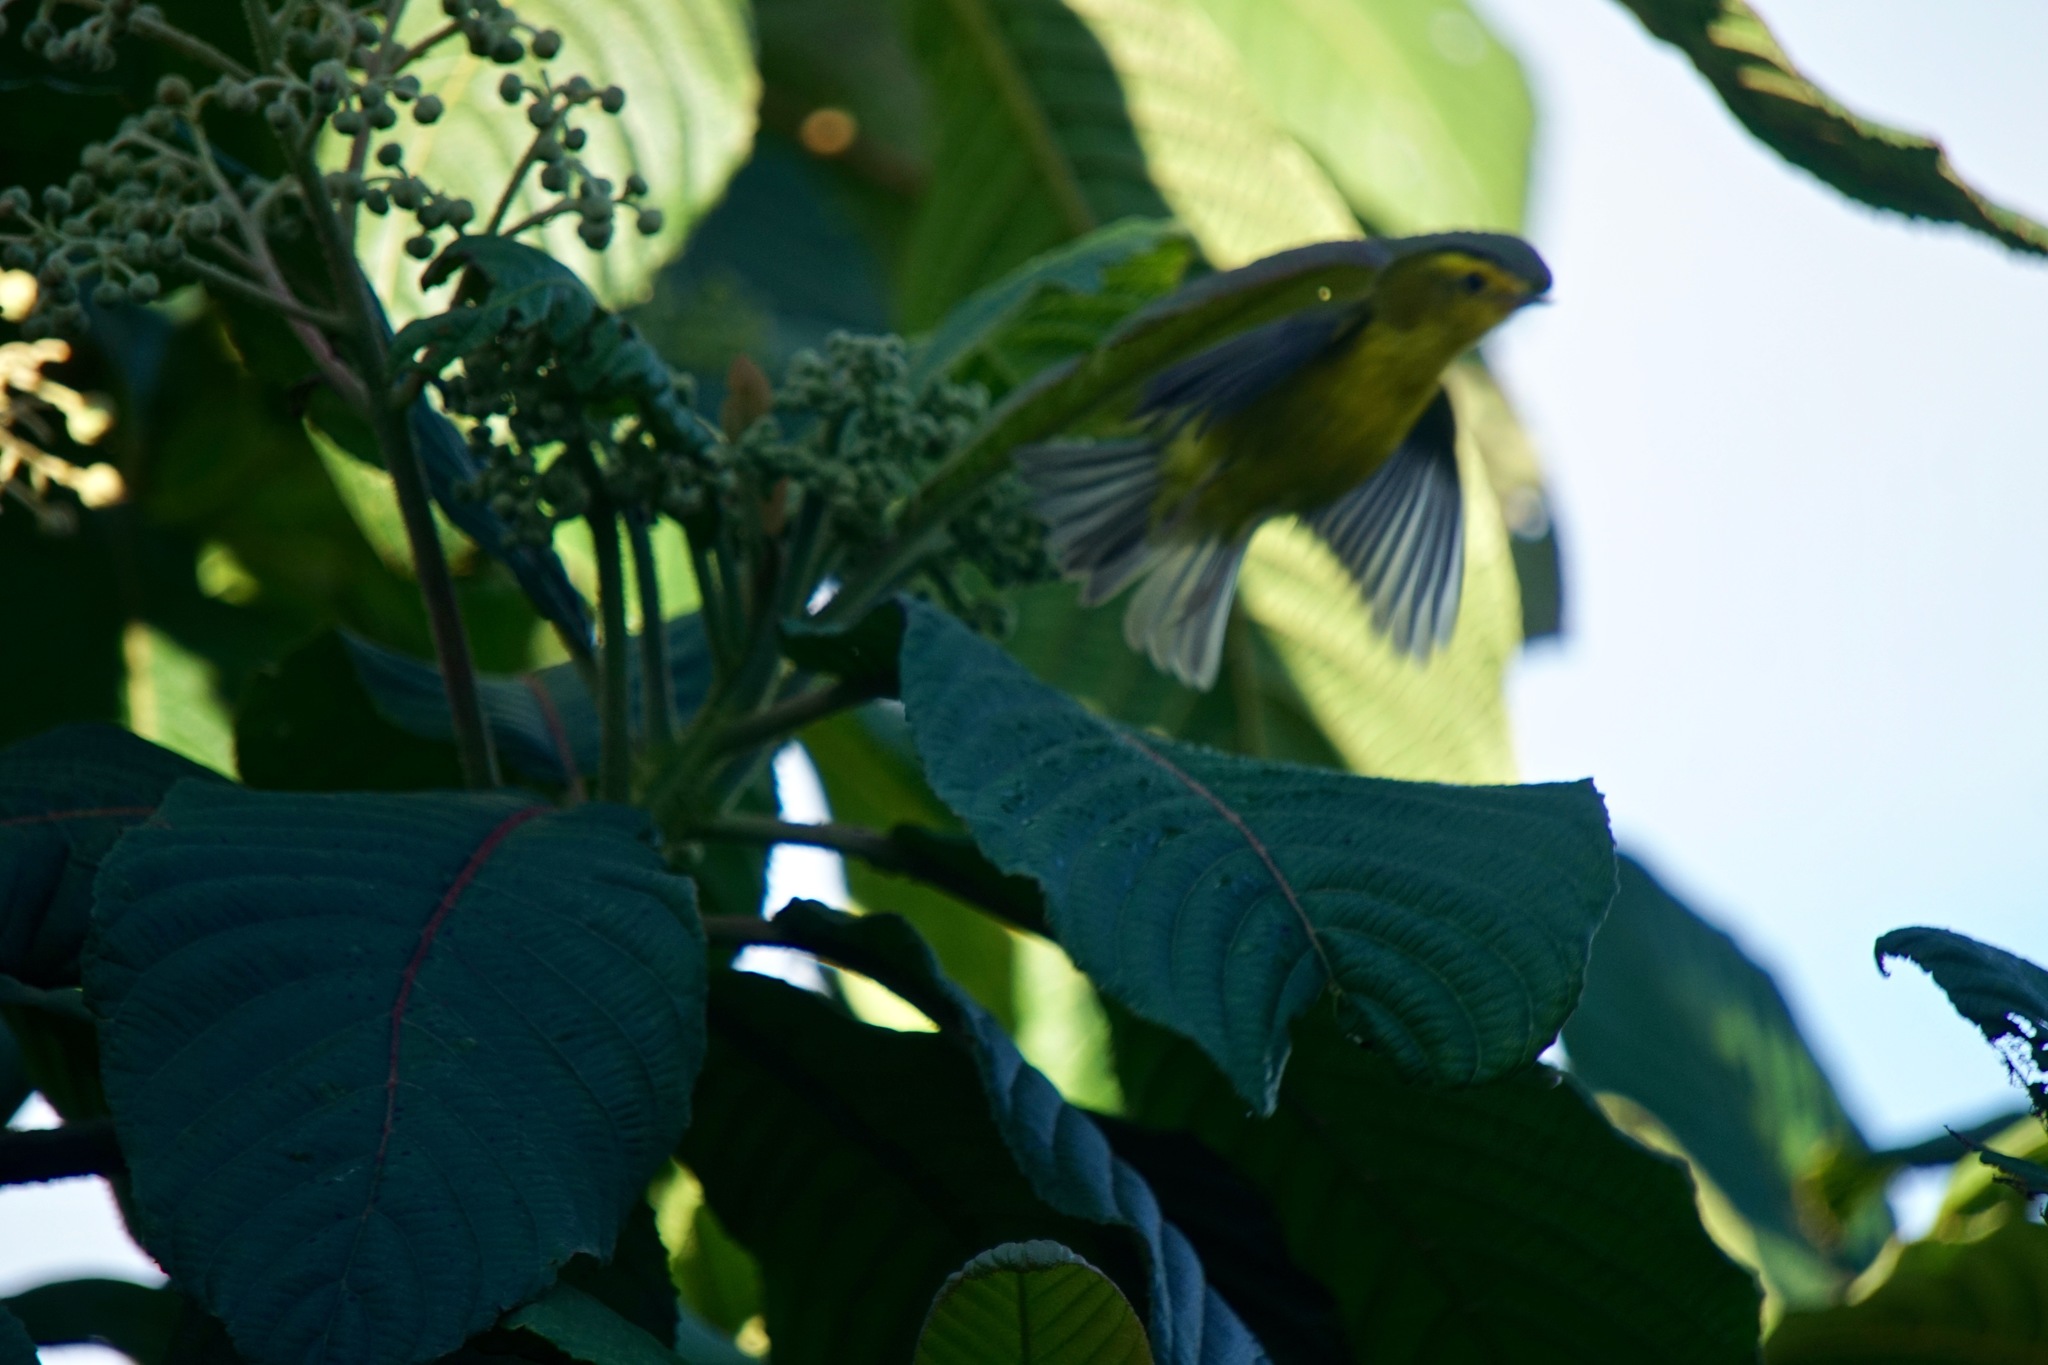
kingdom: Animalia
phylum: Chordata
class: Aves
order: Passeriformes
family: Parulidae
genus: Cardellina
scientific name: Cardellina pusilla
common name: Wilson's warbler
